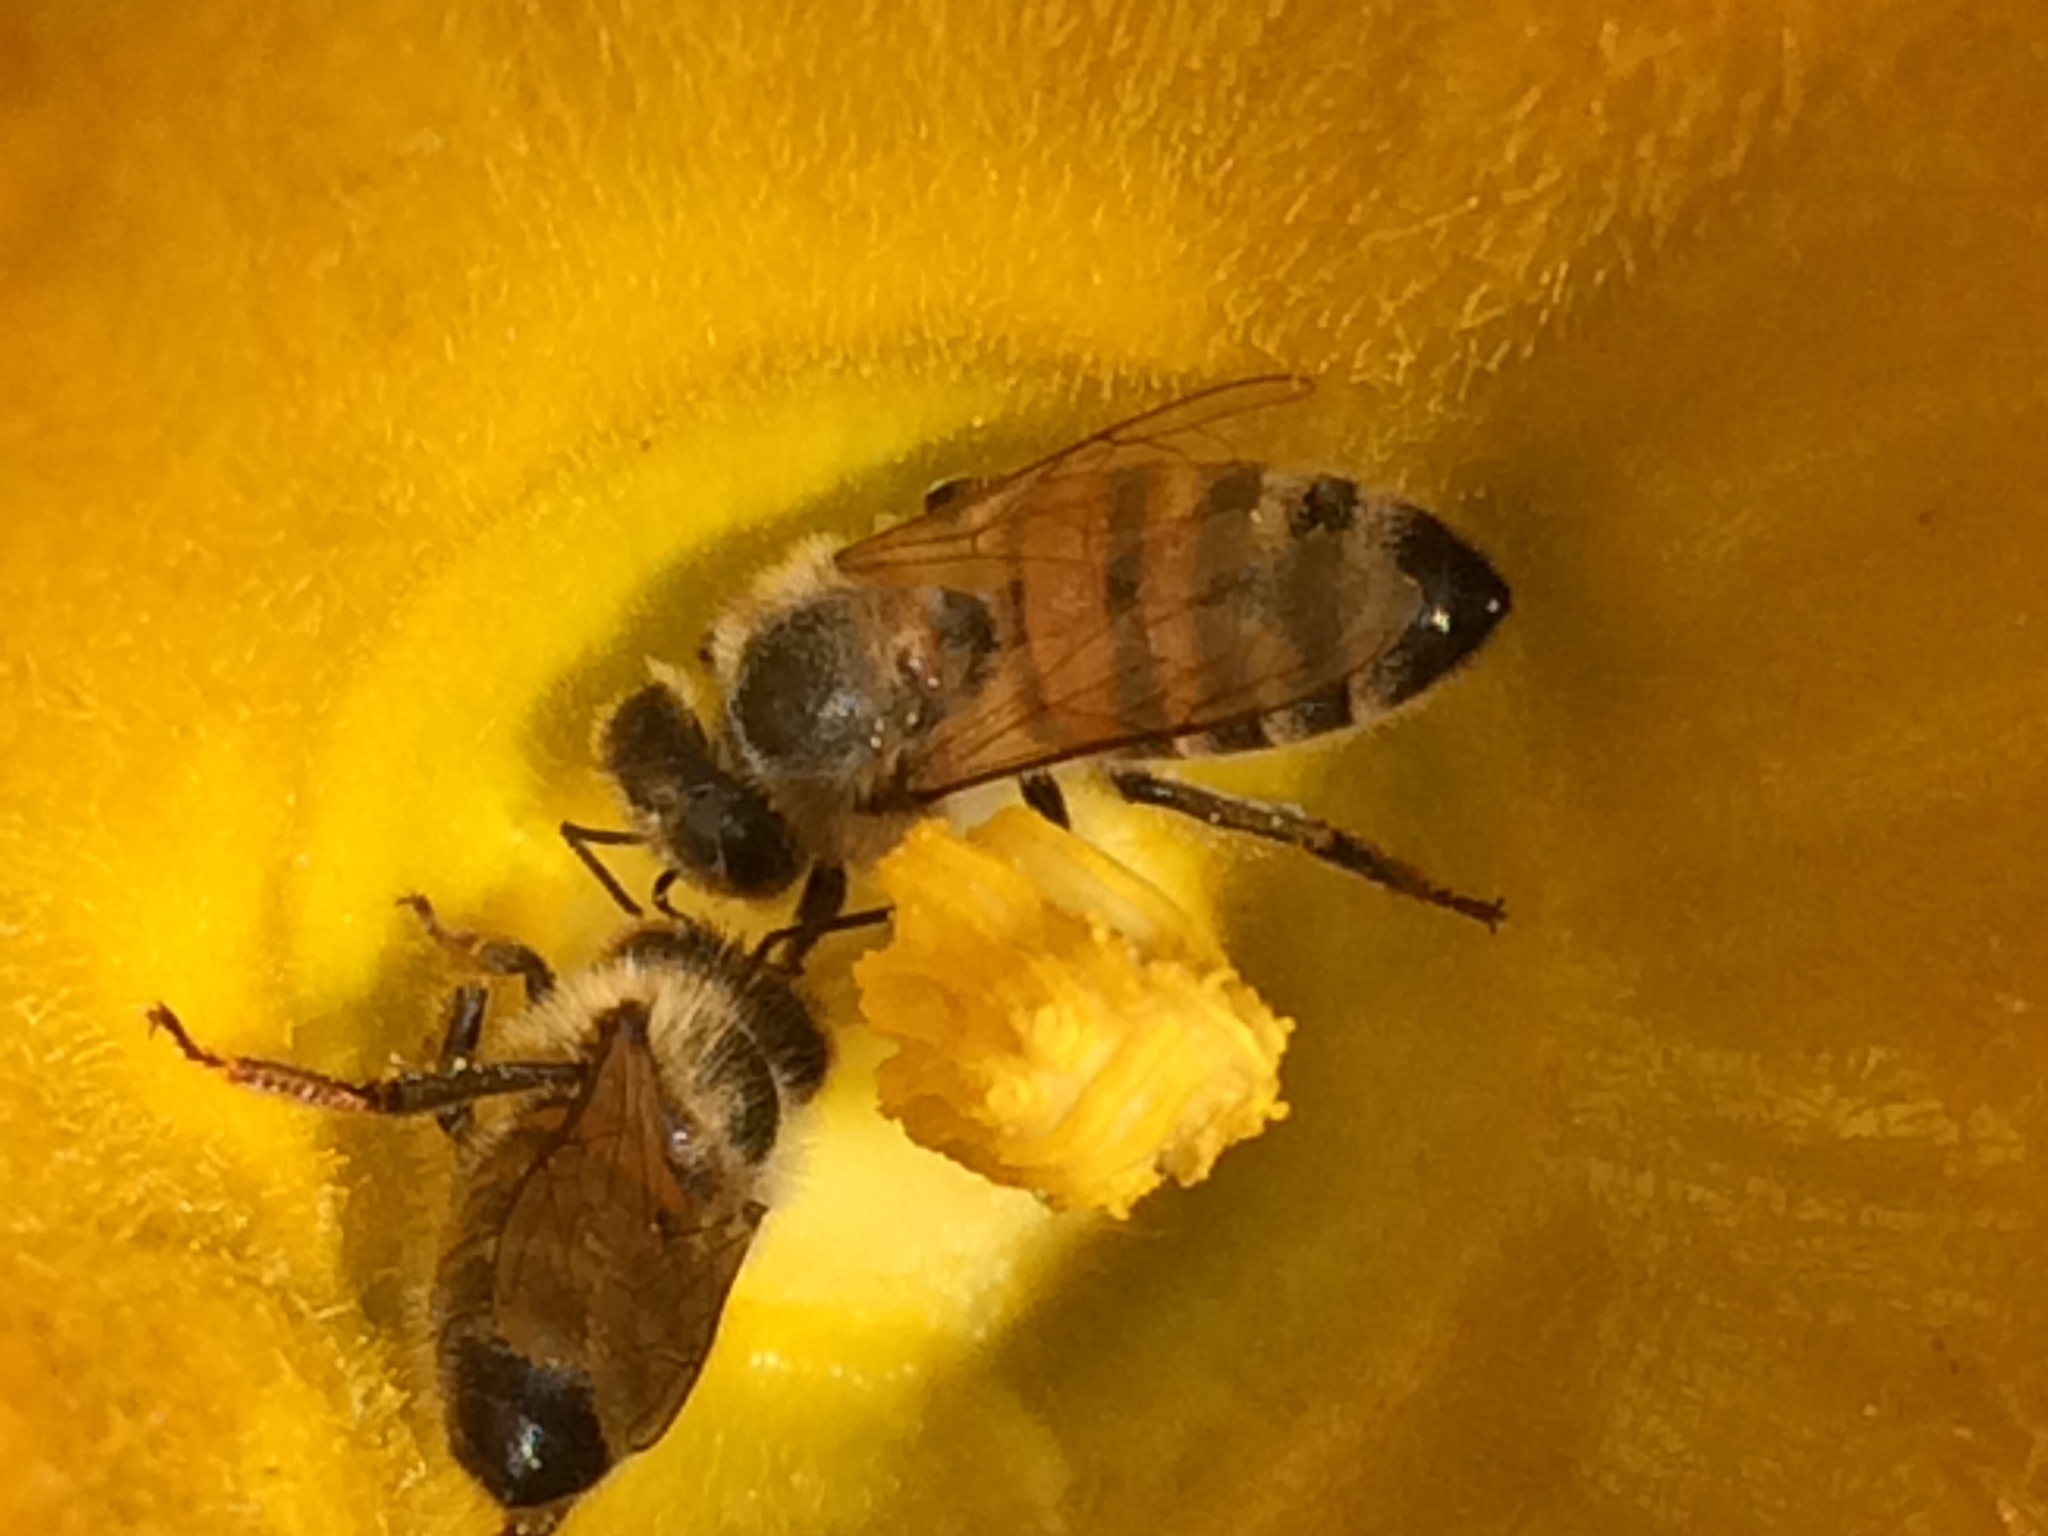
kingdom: Animalia
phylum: Arthropoda
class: Insecta
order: Hymenoptera
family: Apidae
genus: Apis
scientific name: Apis mellifera
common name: Honey bee
